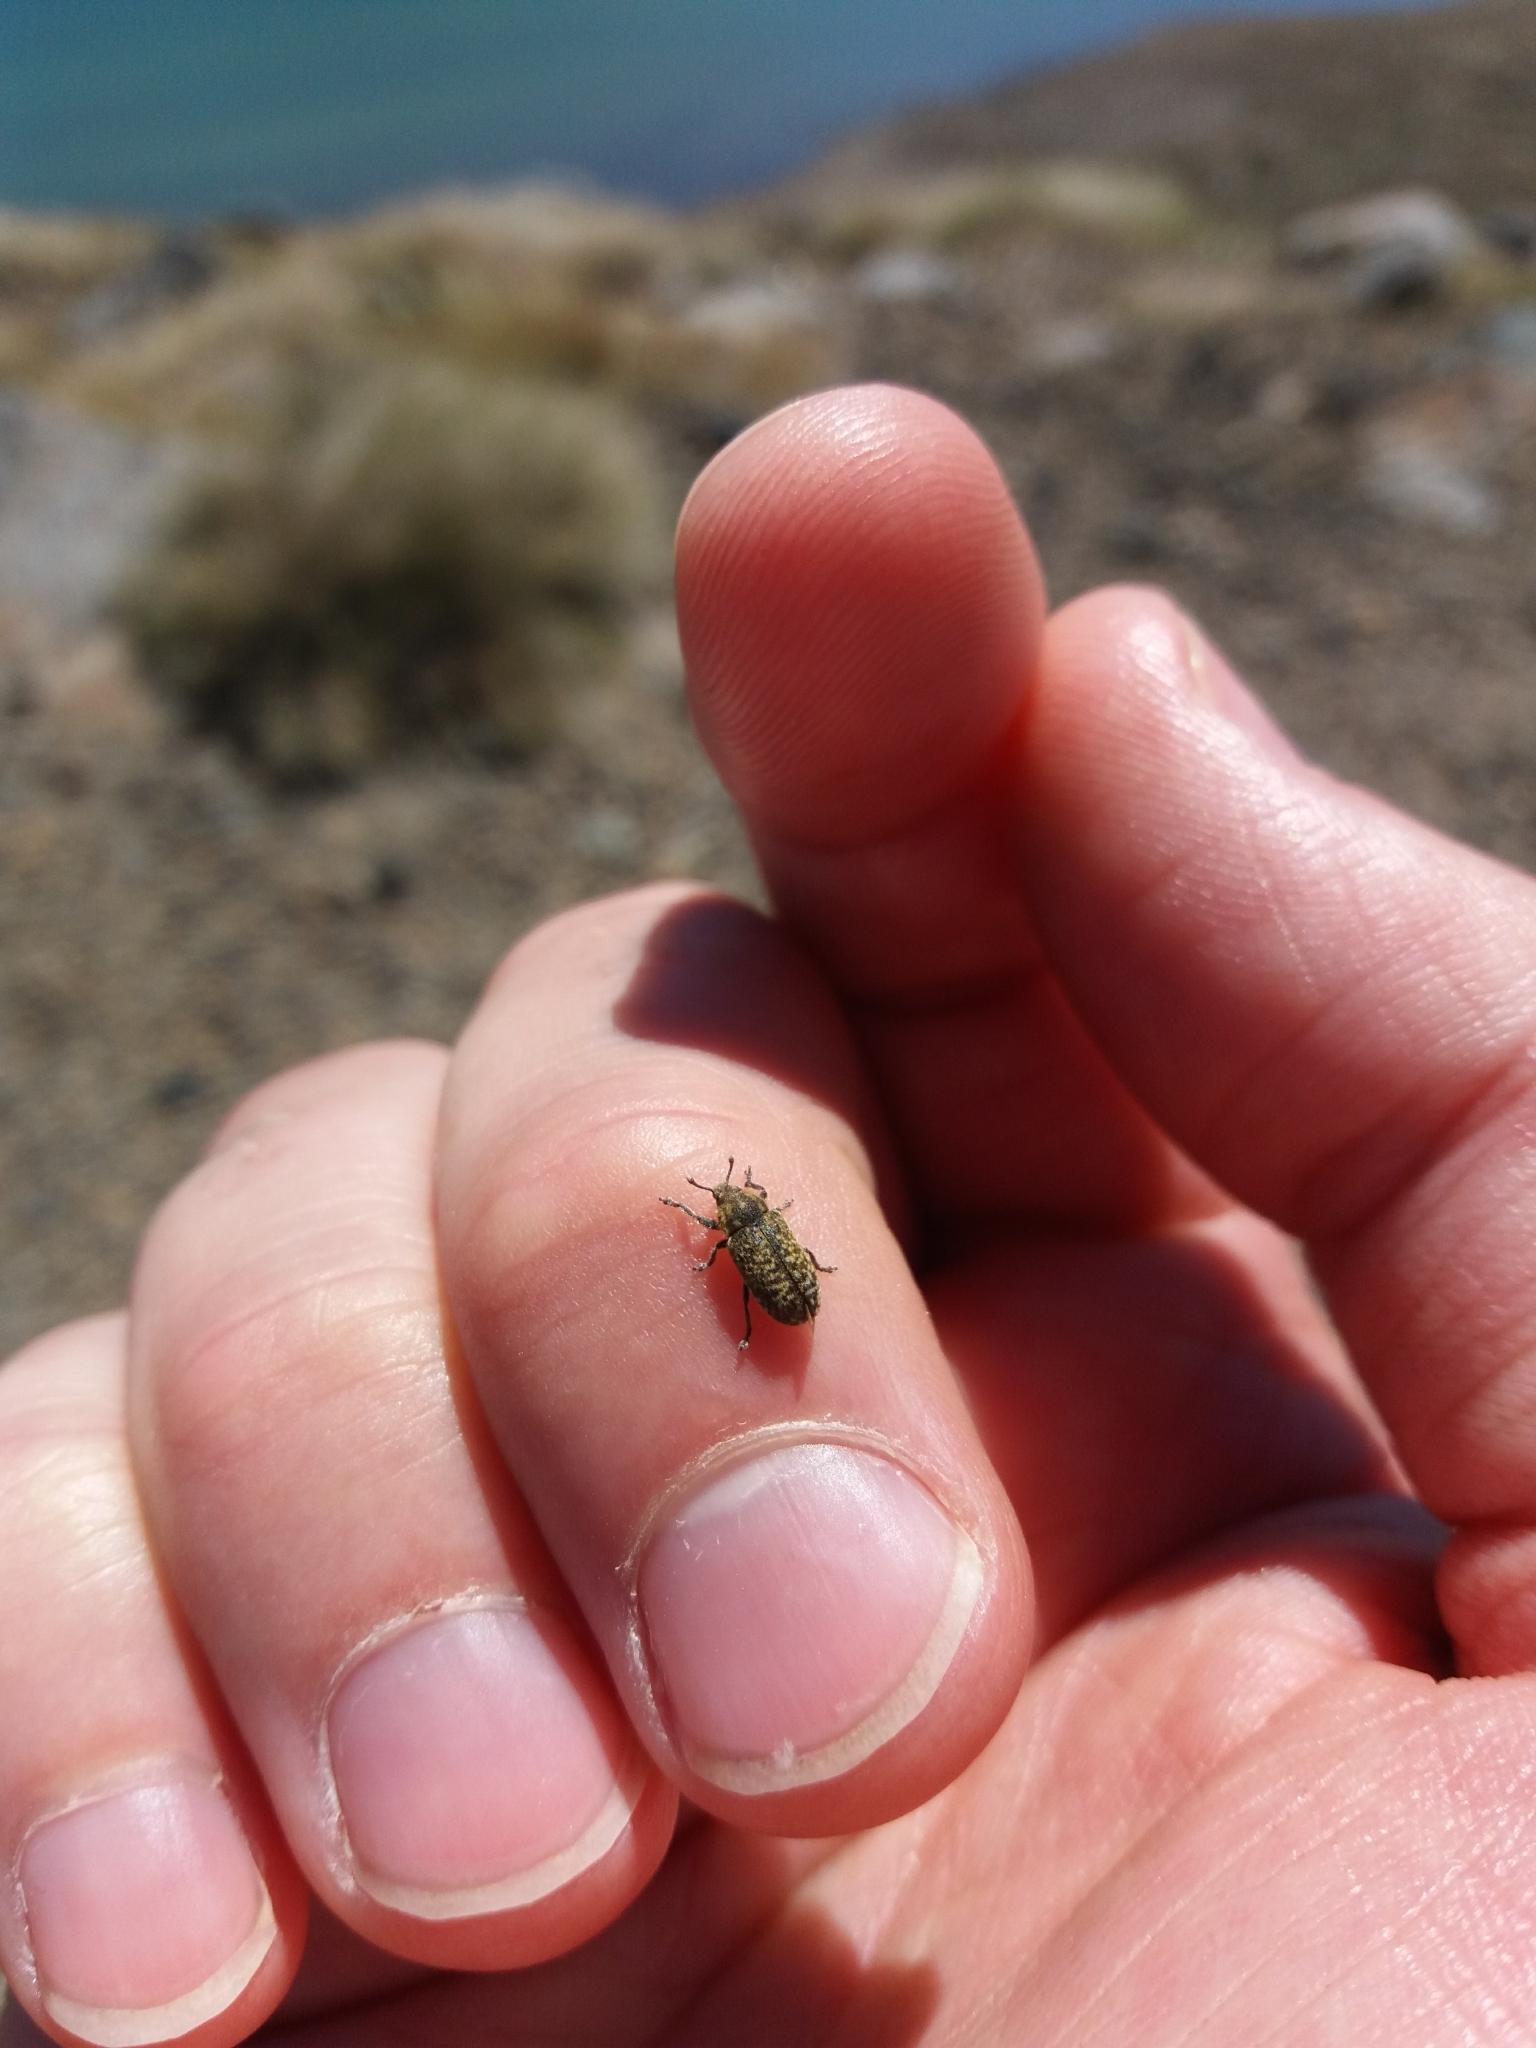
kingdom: Animalia
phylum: Arthropoda
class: Insecta
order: Coleoptera
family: Curculionidae
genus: Rhinocyllus
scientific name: Rhinocyllus conicus
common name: Weevil
